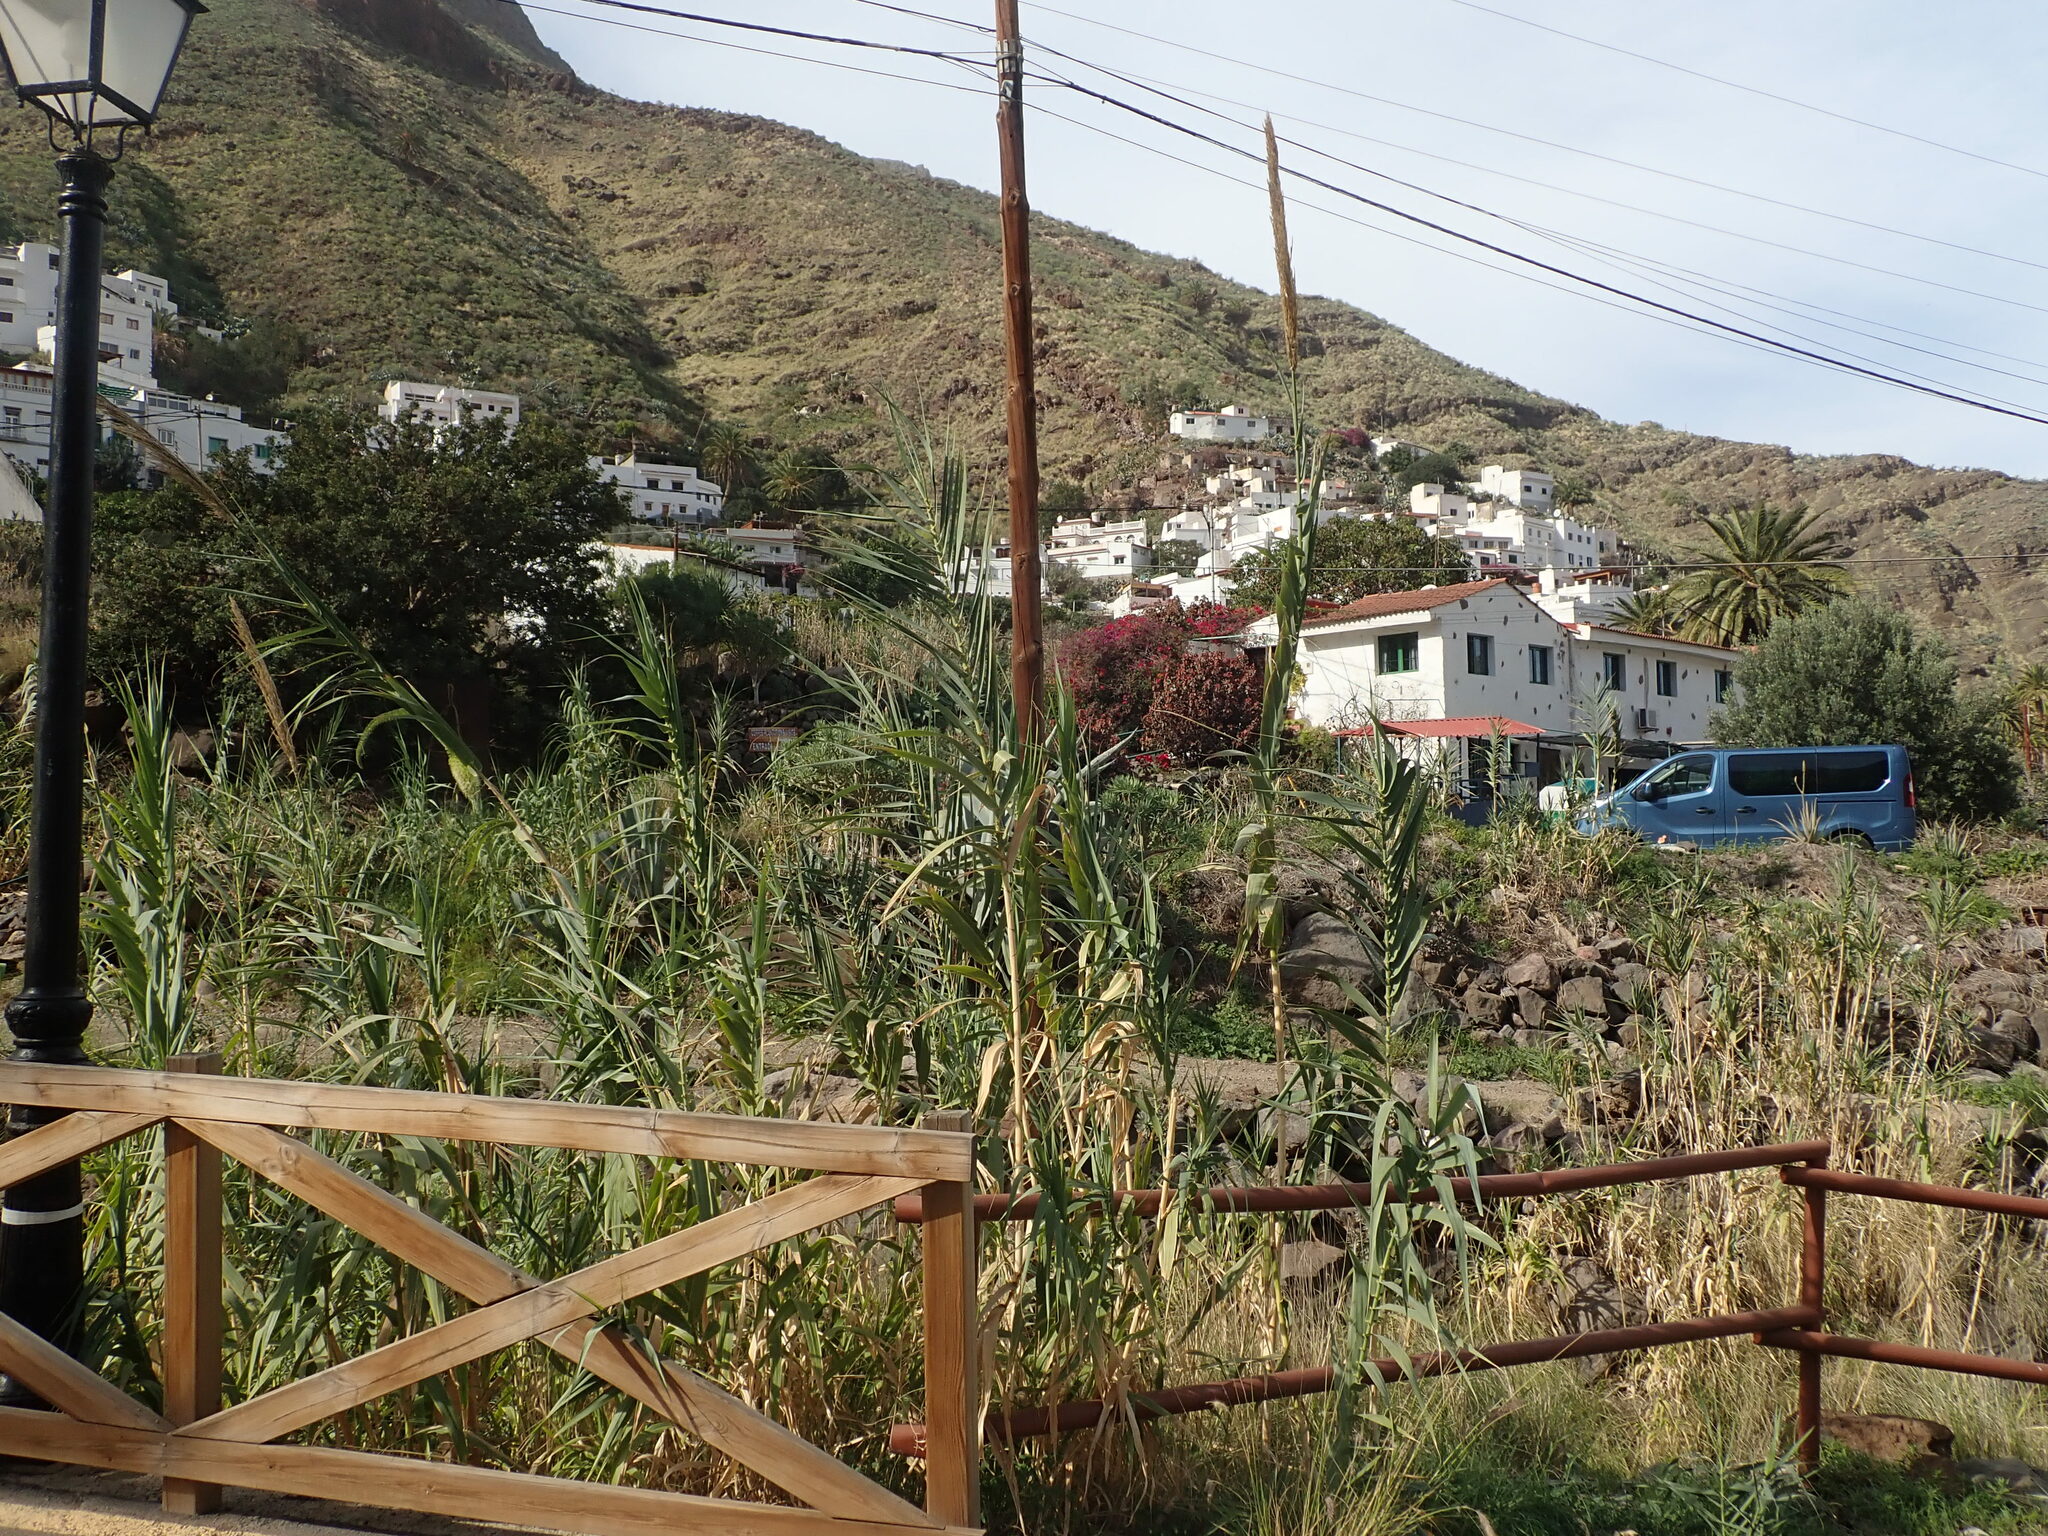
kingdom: Plantae
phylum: Tracheophyta
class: Liliopsida
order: Poales
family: Poaceae
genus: Arundo
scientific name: Arundo donax
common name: Giant reed
